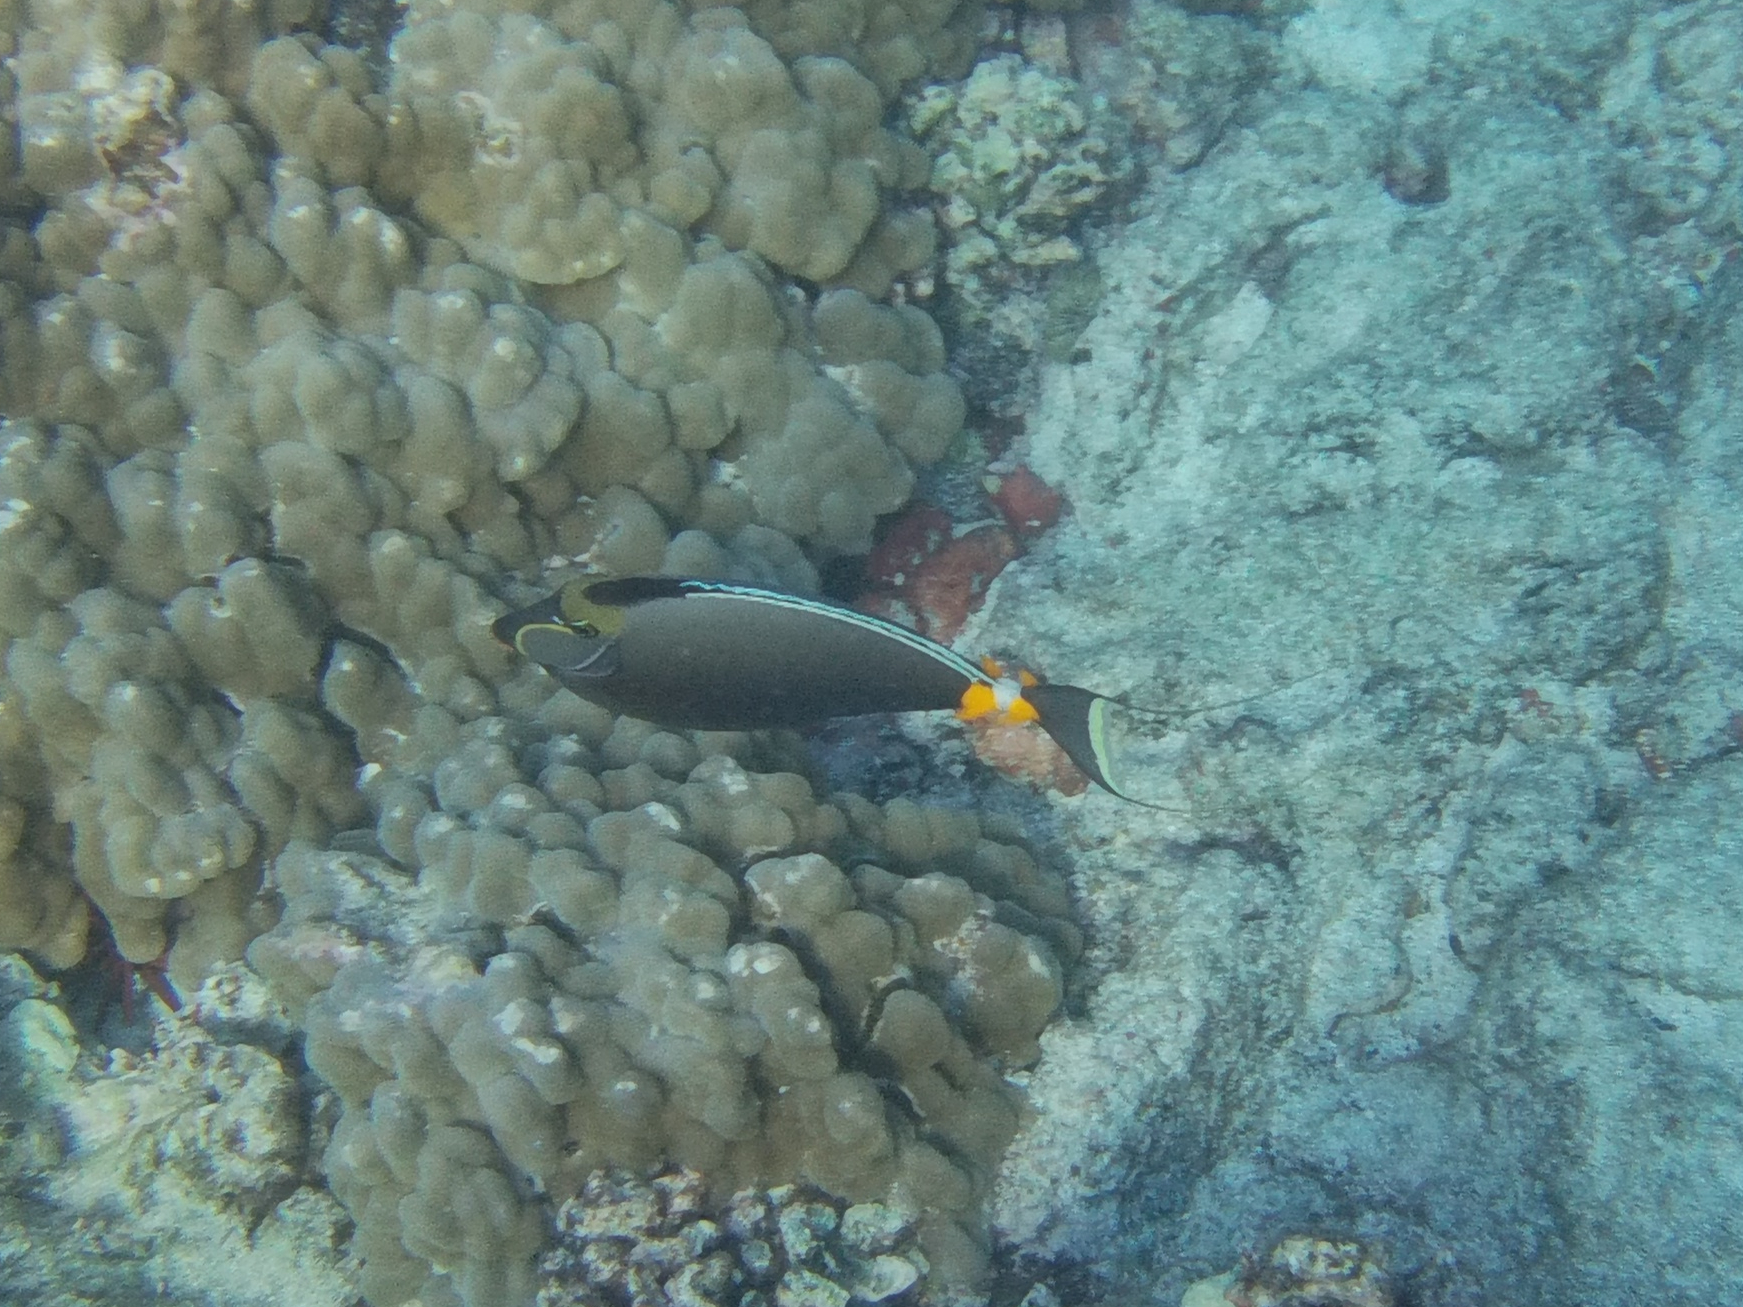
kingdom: Animalia
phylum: Chordata
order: Perciformes
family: Acanthuridae
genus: Naso
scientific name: Naso lituratus
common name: Orangespine unicornfish
